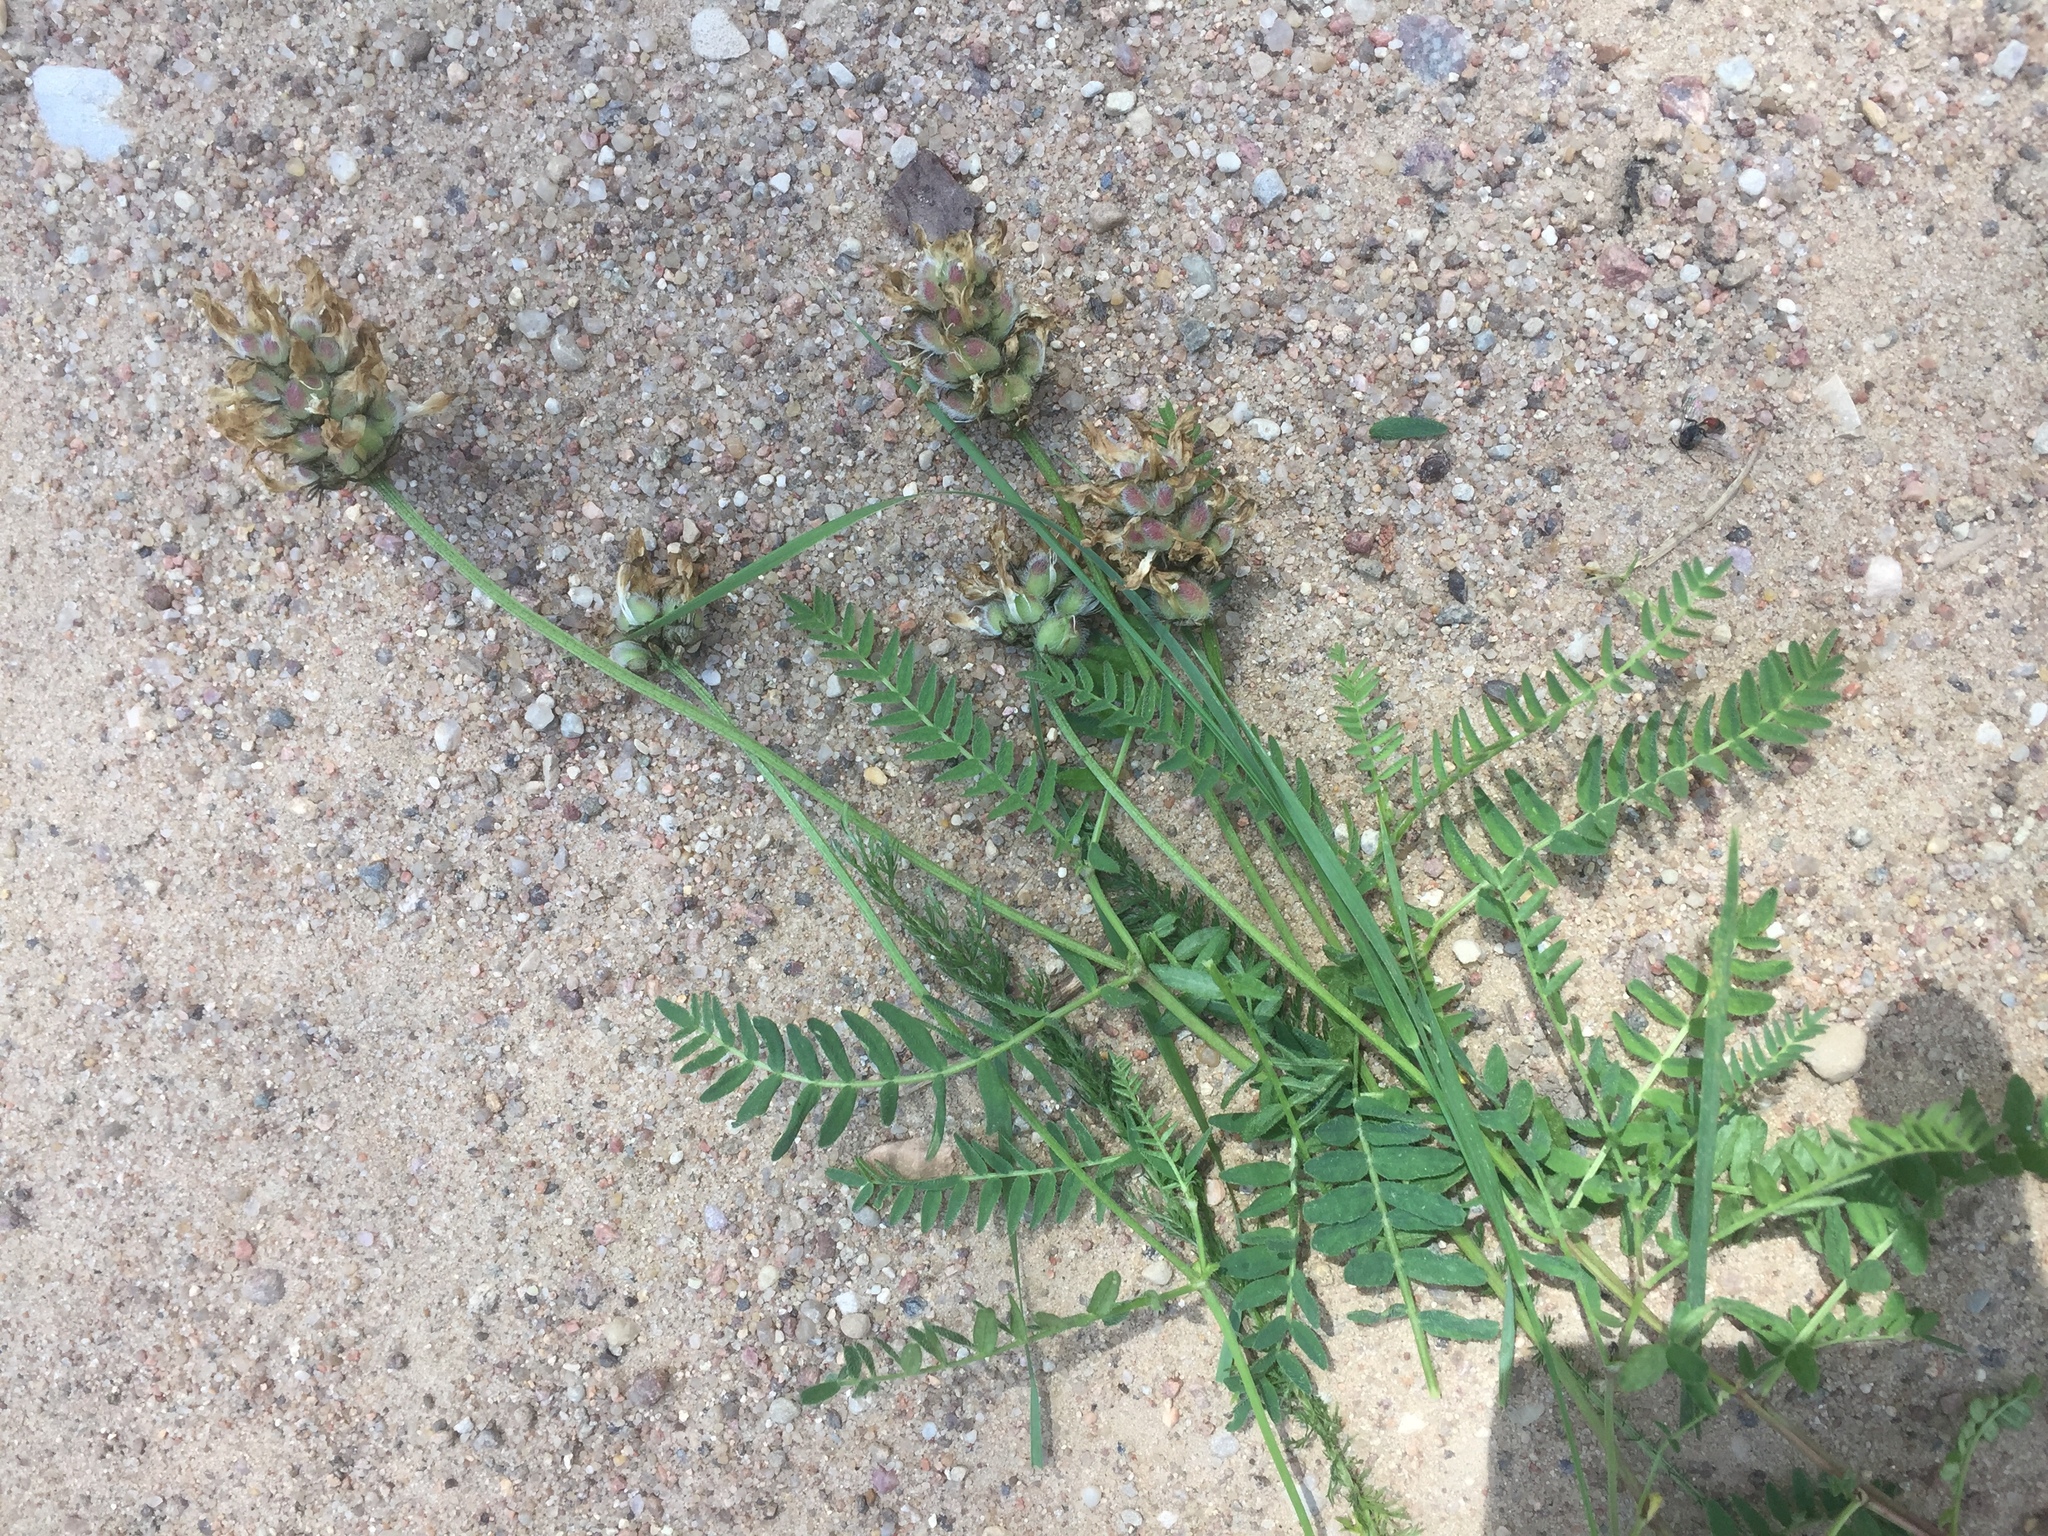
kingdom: Plantae
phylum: Tracheophyta
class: Magnoliopsida
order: Fabales
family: Fabaceae
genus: Astragalus
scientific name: Astragalus danicus
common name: Purple milk-vetch
